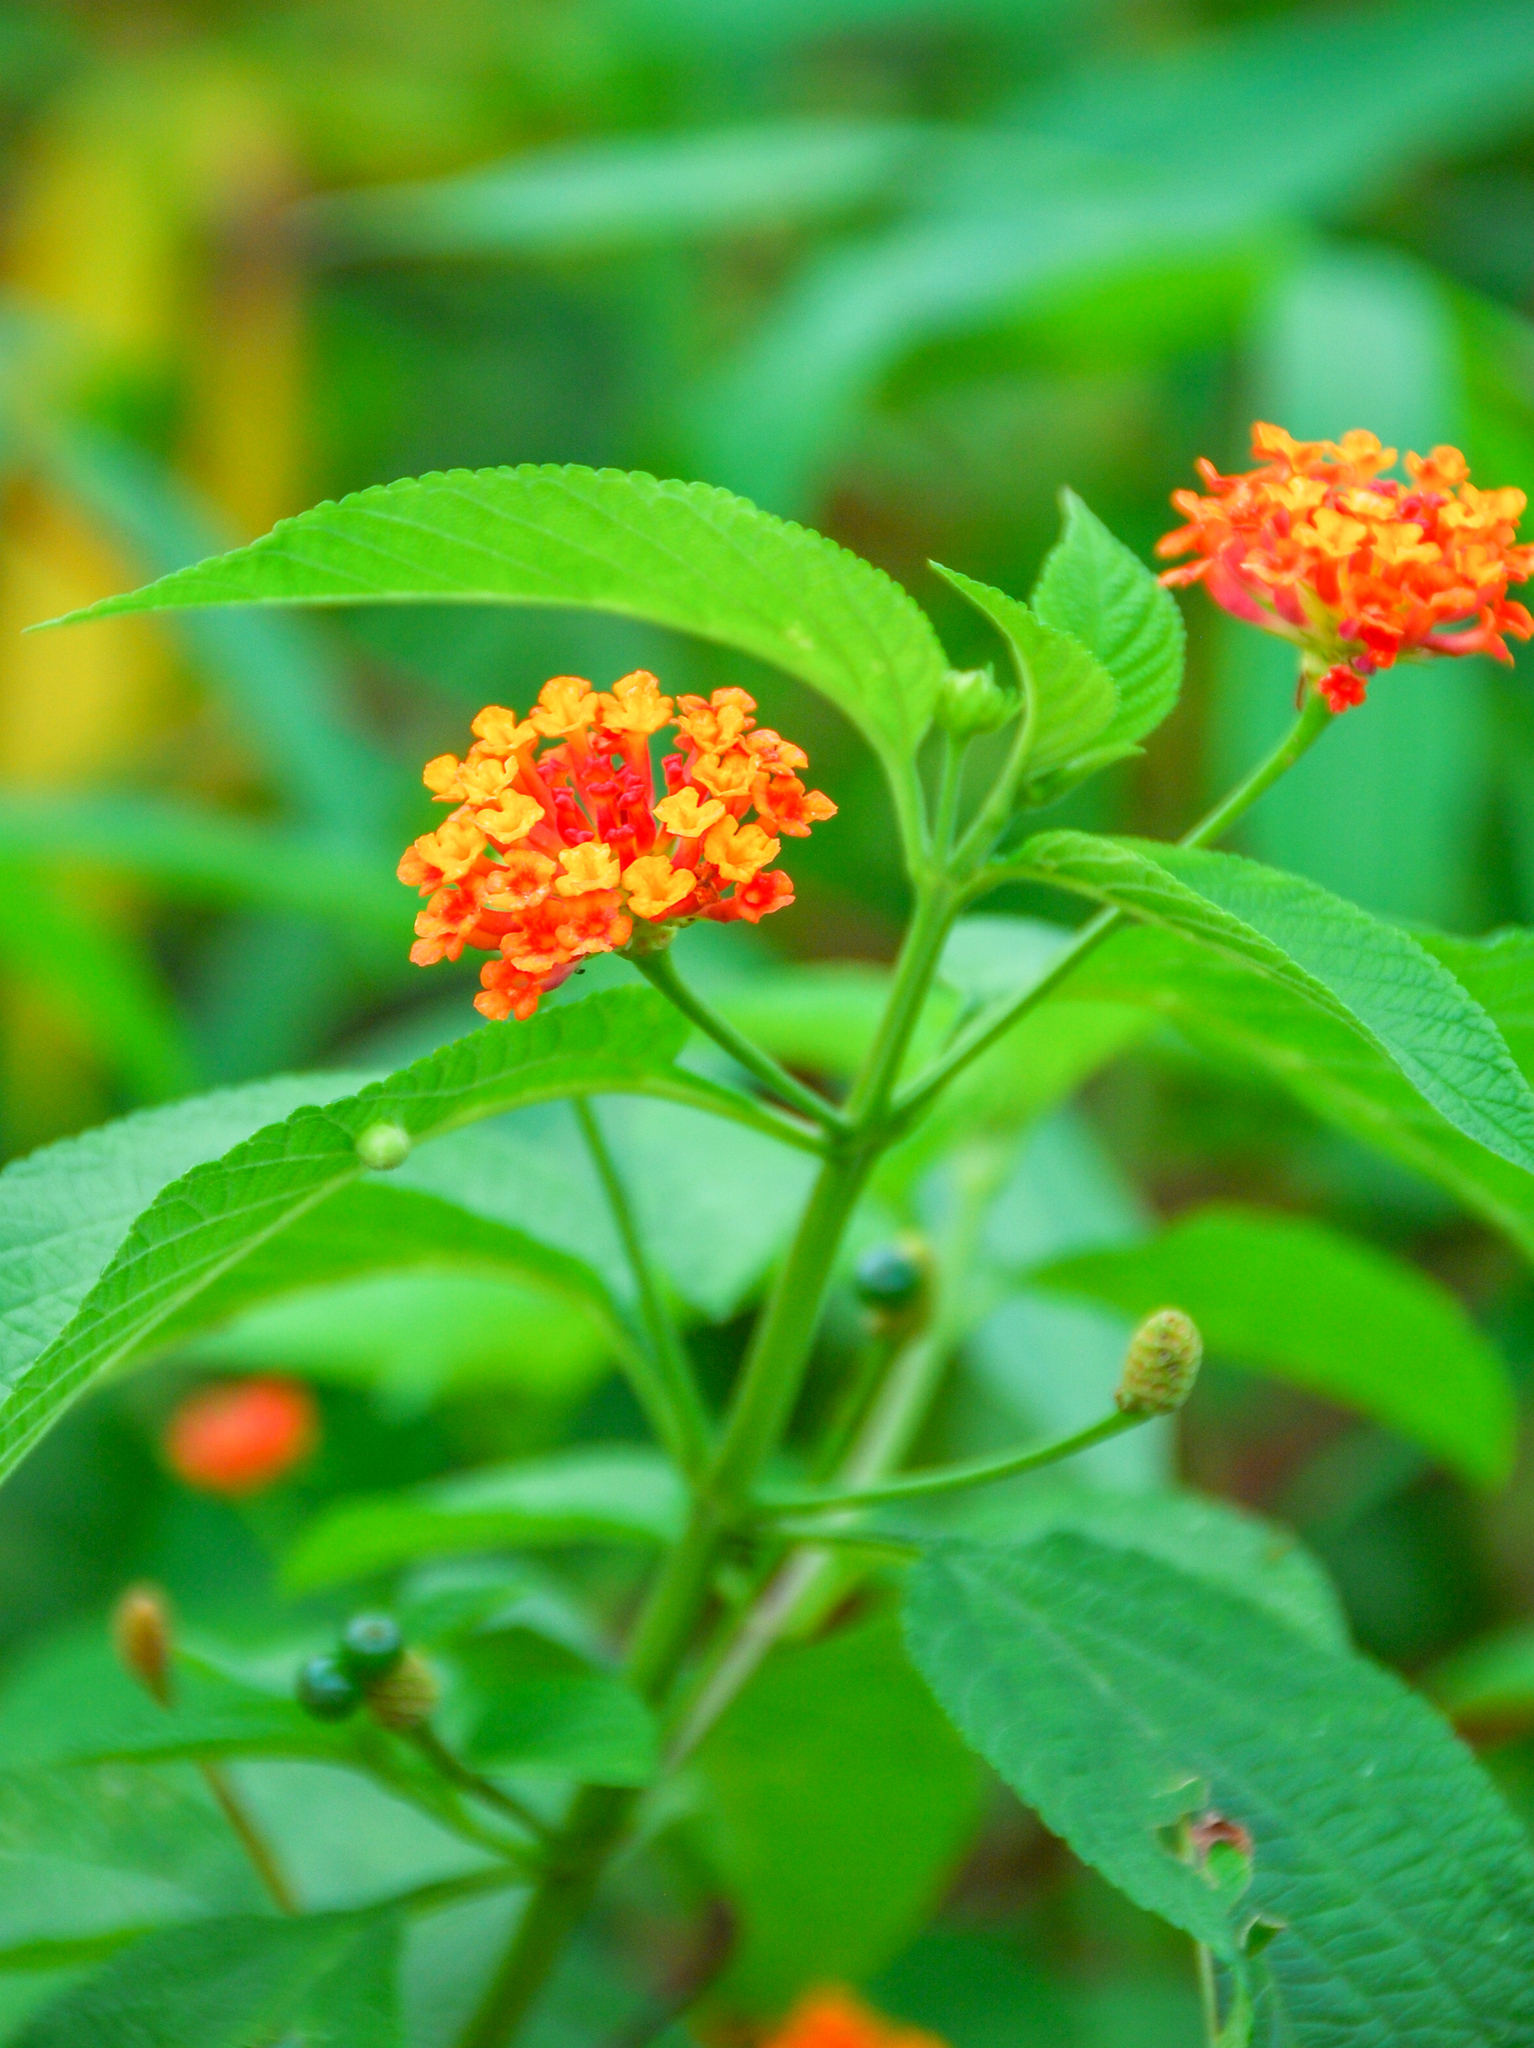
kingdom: Plantae
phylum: Tracheophyta
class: Magnoliopsida
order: Lamiales
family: Verbenaceae
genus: Lantana
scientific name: Lantana camara
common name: Lantana
